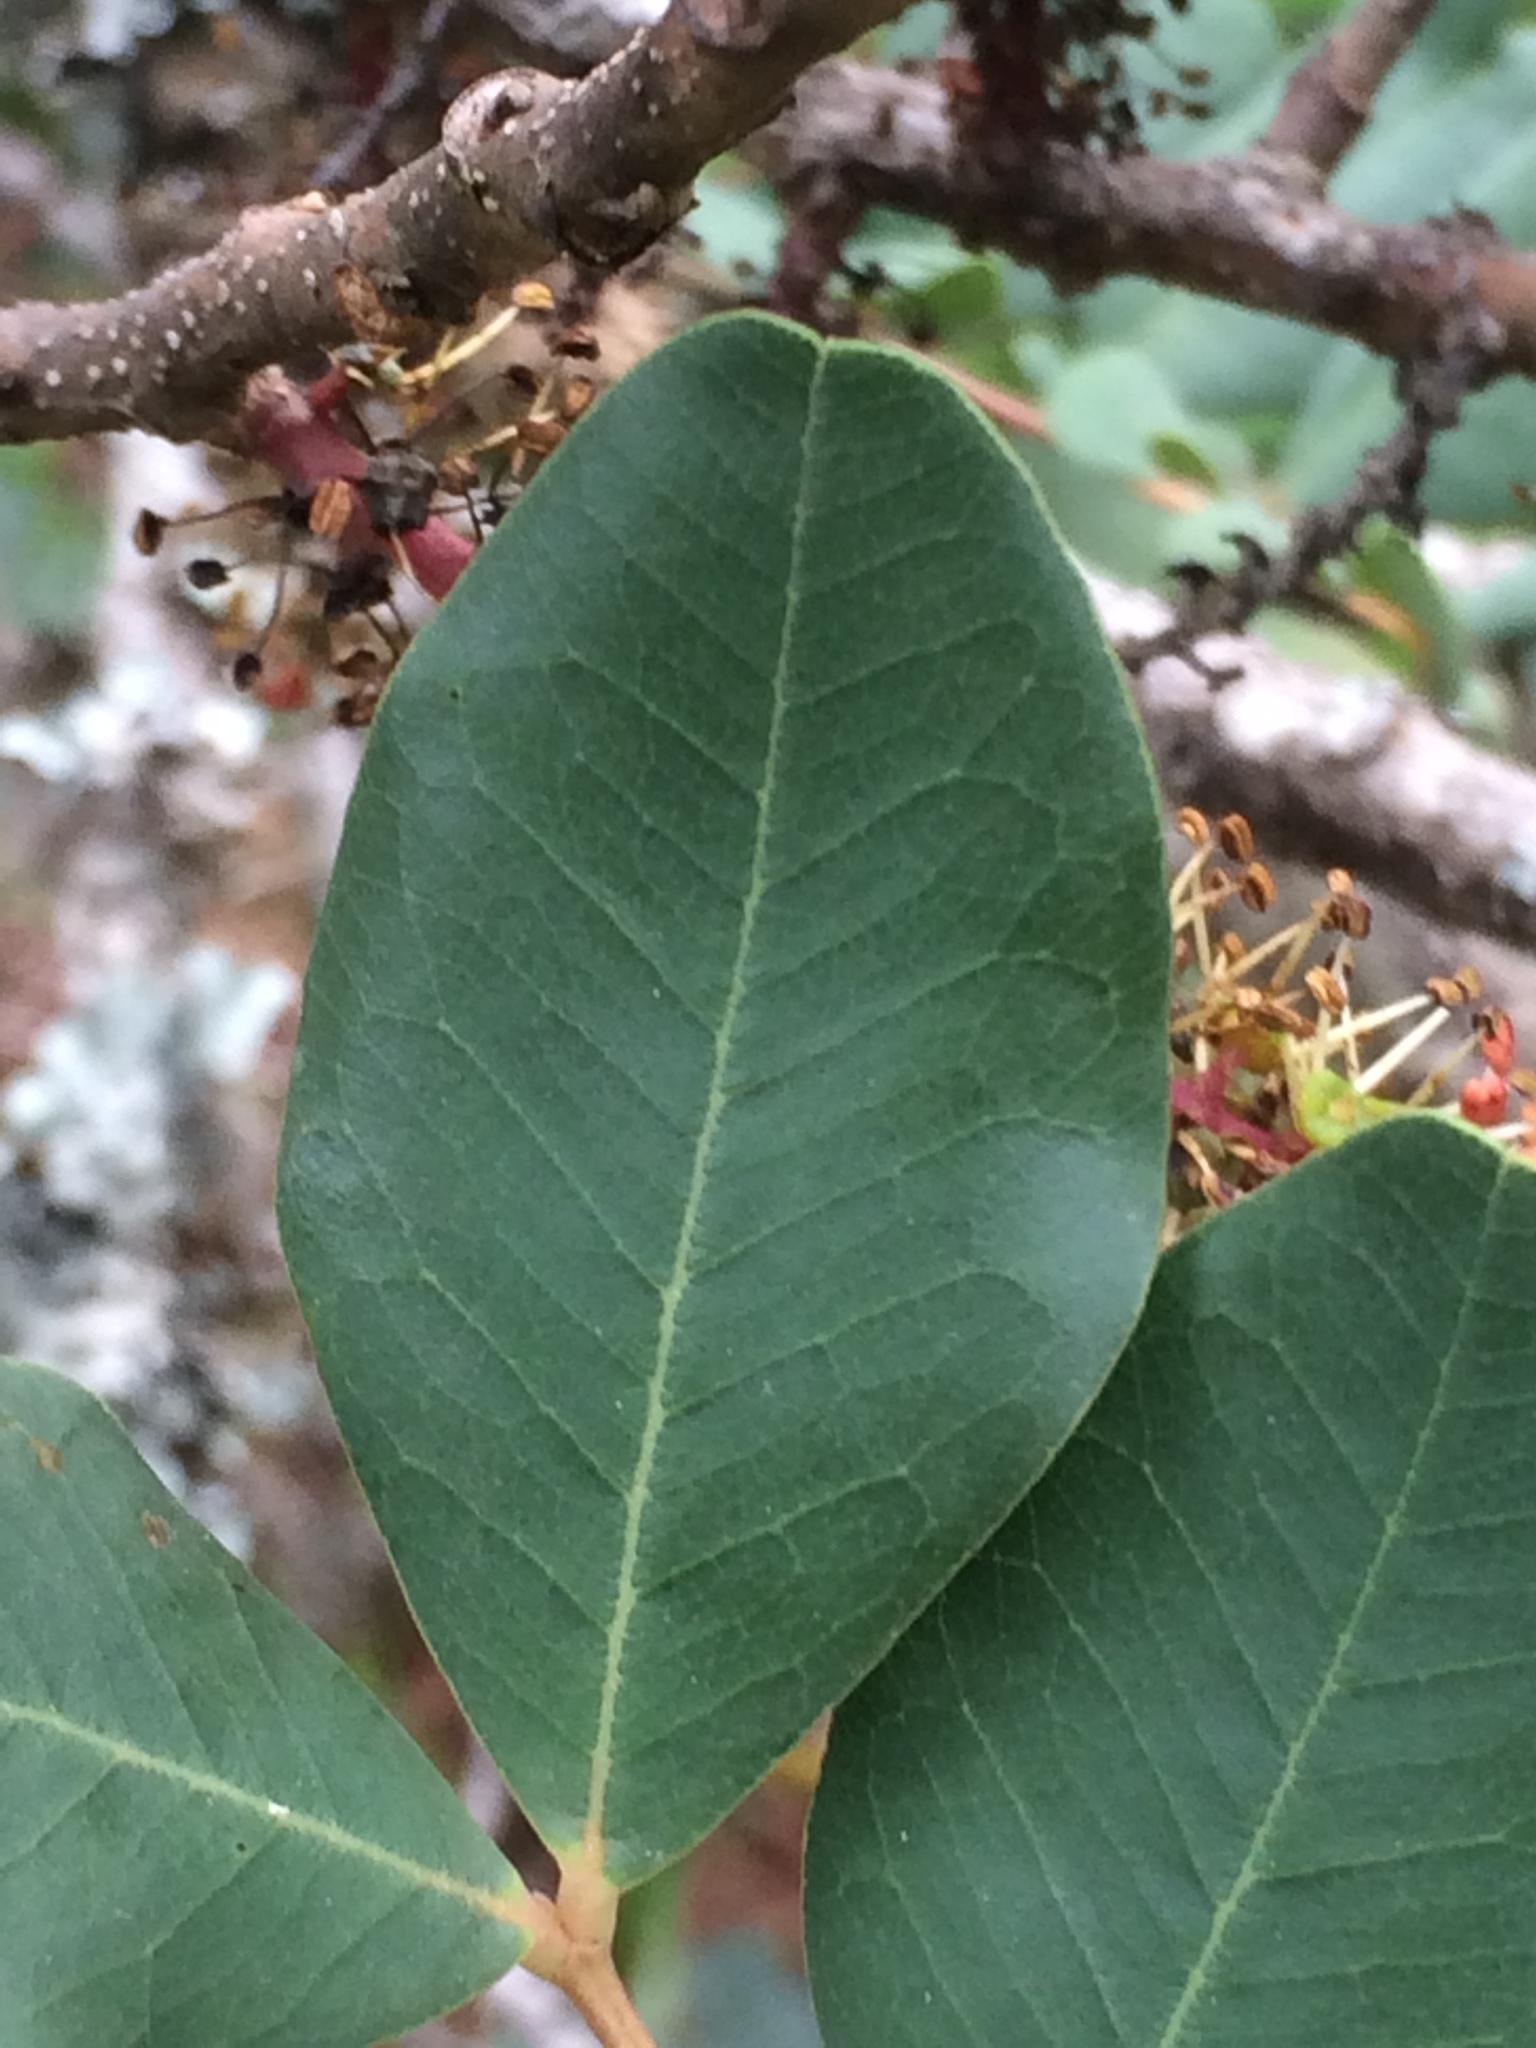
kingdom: Plantae
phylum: Tracheophyta
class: Magnoliopsida
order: Fabales
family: Fabaceae
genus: Ceratonia
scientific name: Ceratonia siliqua
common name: Carob
